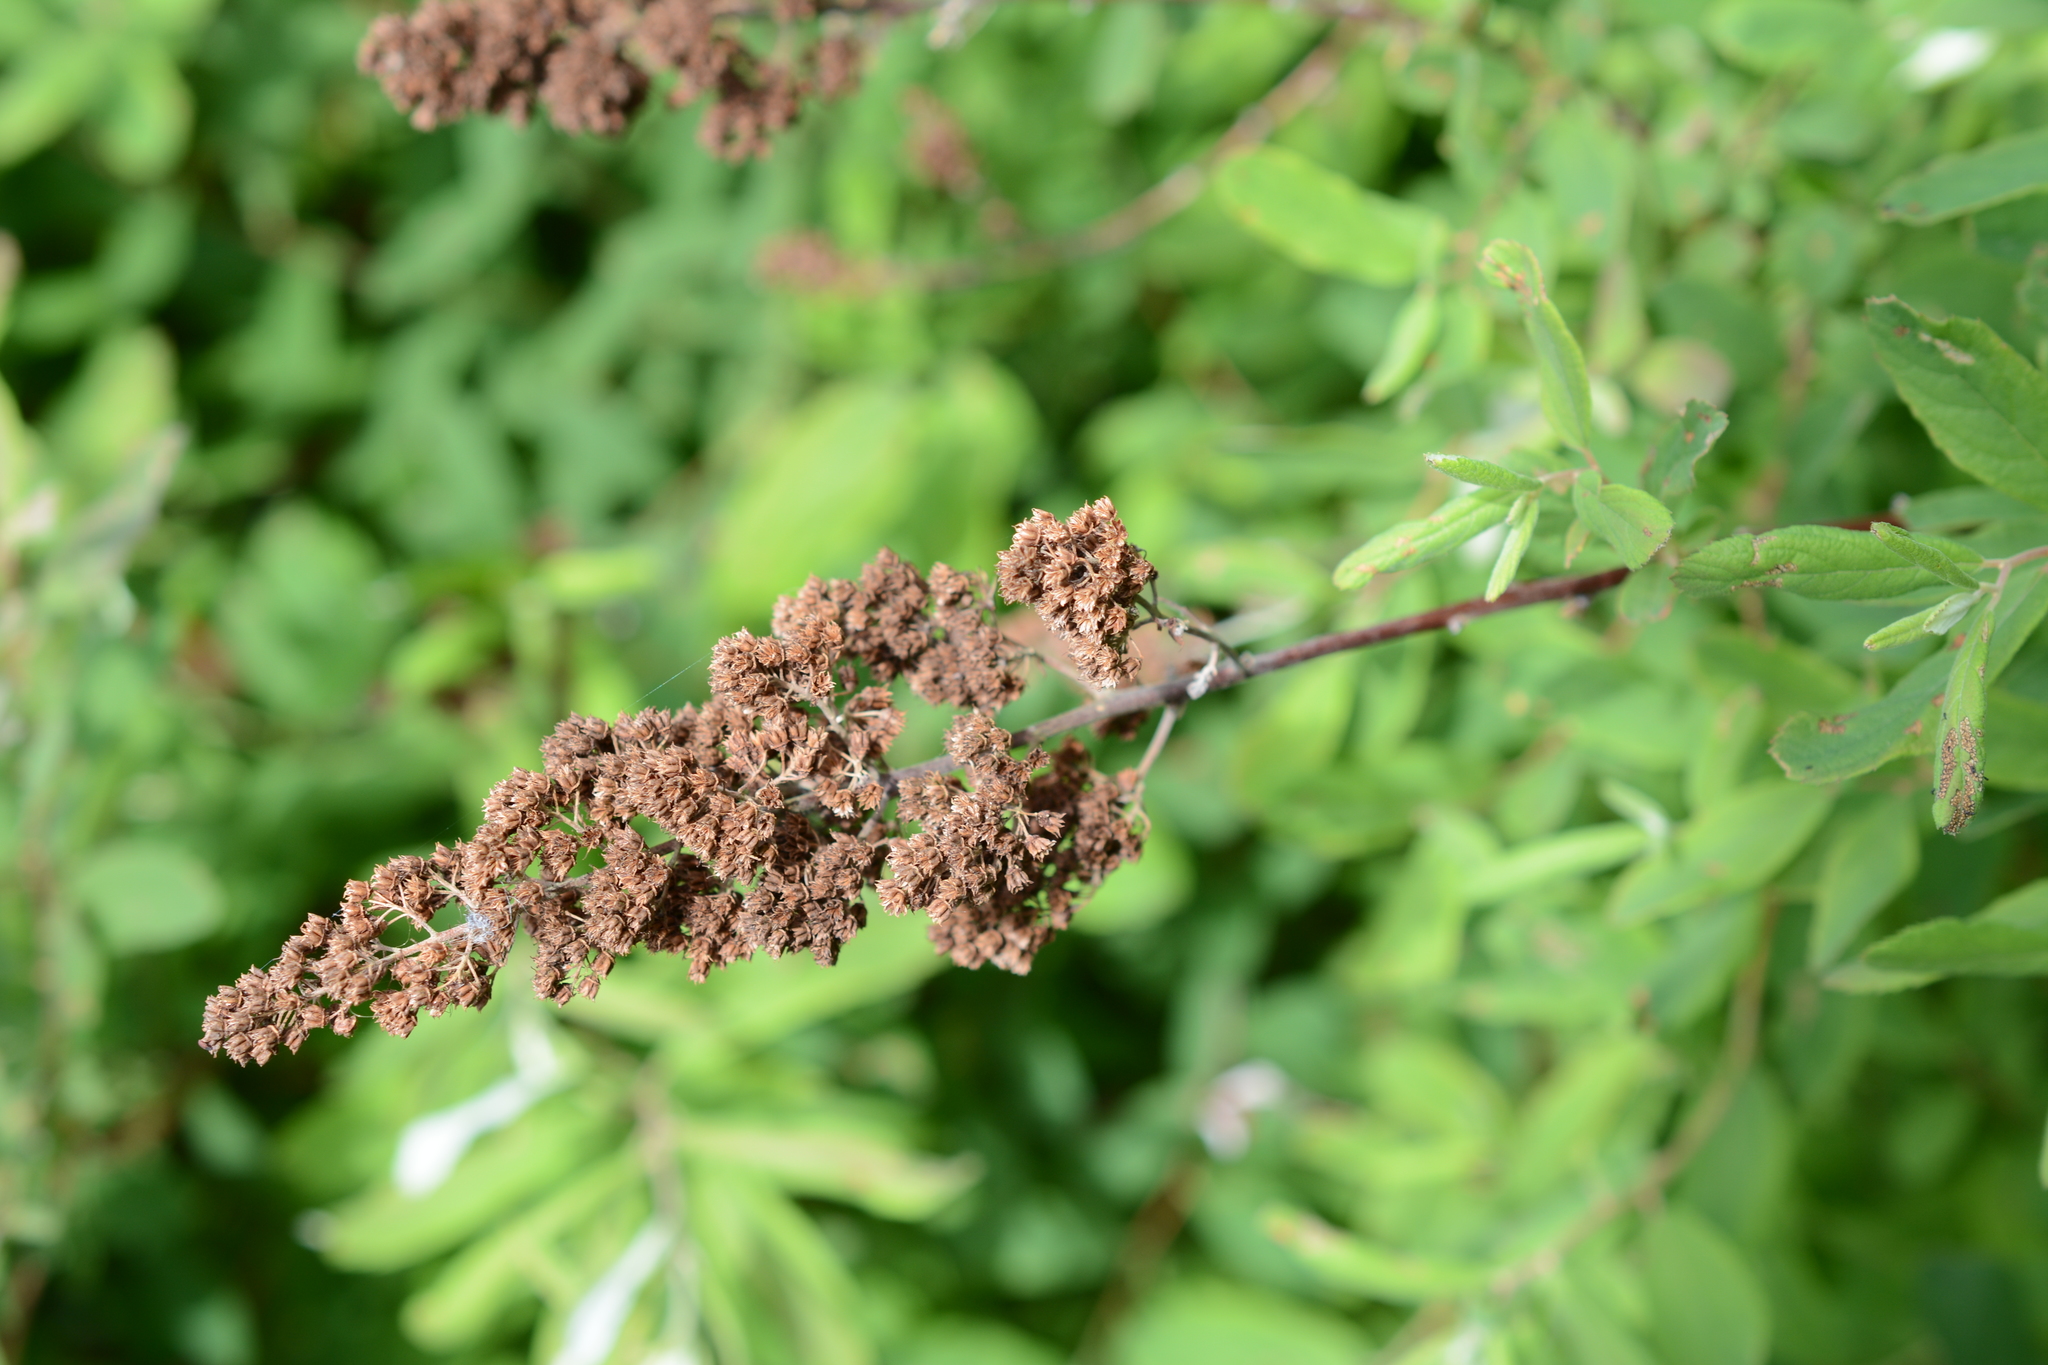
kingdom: Plantae
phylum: Tracheophyta
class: Magnoliopsida
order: Rosales
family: Rosaceae
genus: Spiraea
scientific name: Spiraea douglasii
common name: Steeplebush
